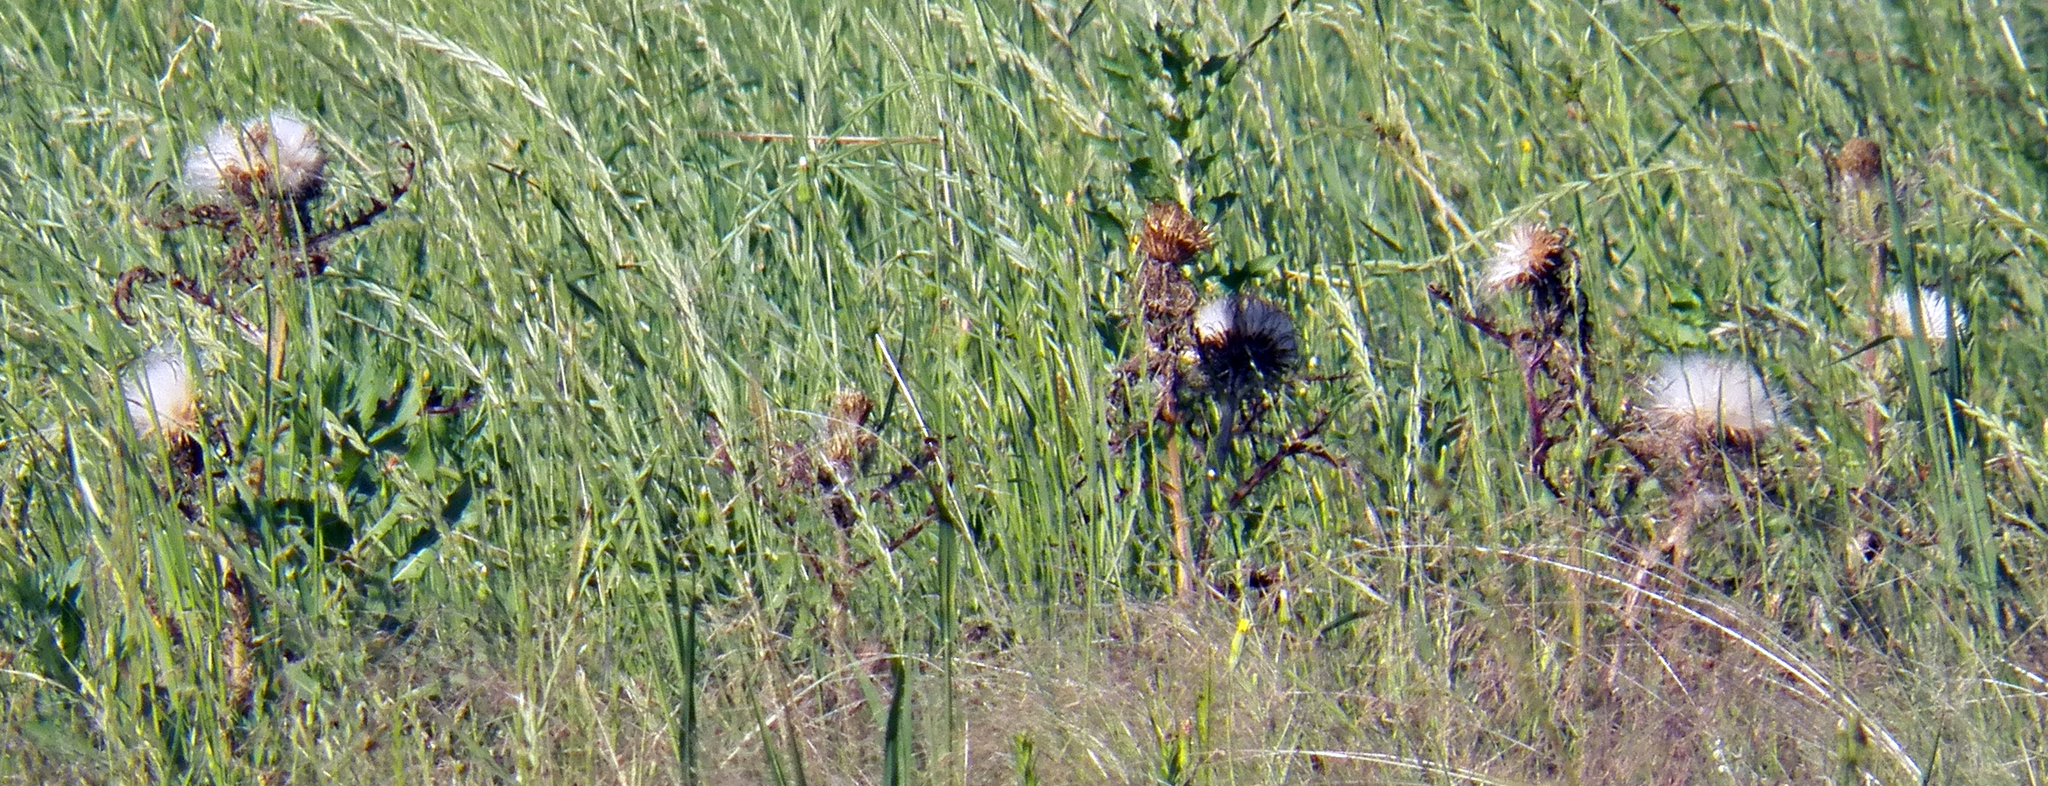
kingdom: Plantae
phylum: Tracheophyta
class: Magnoliopsida
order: Asterales
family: Asteraceae
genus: Cirsium
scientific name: Cirsium horridulum
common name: Bristly thistle
